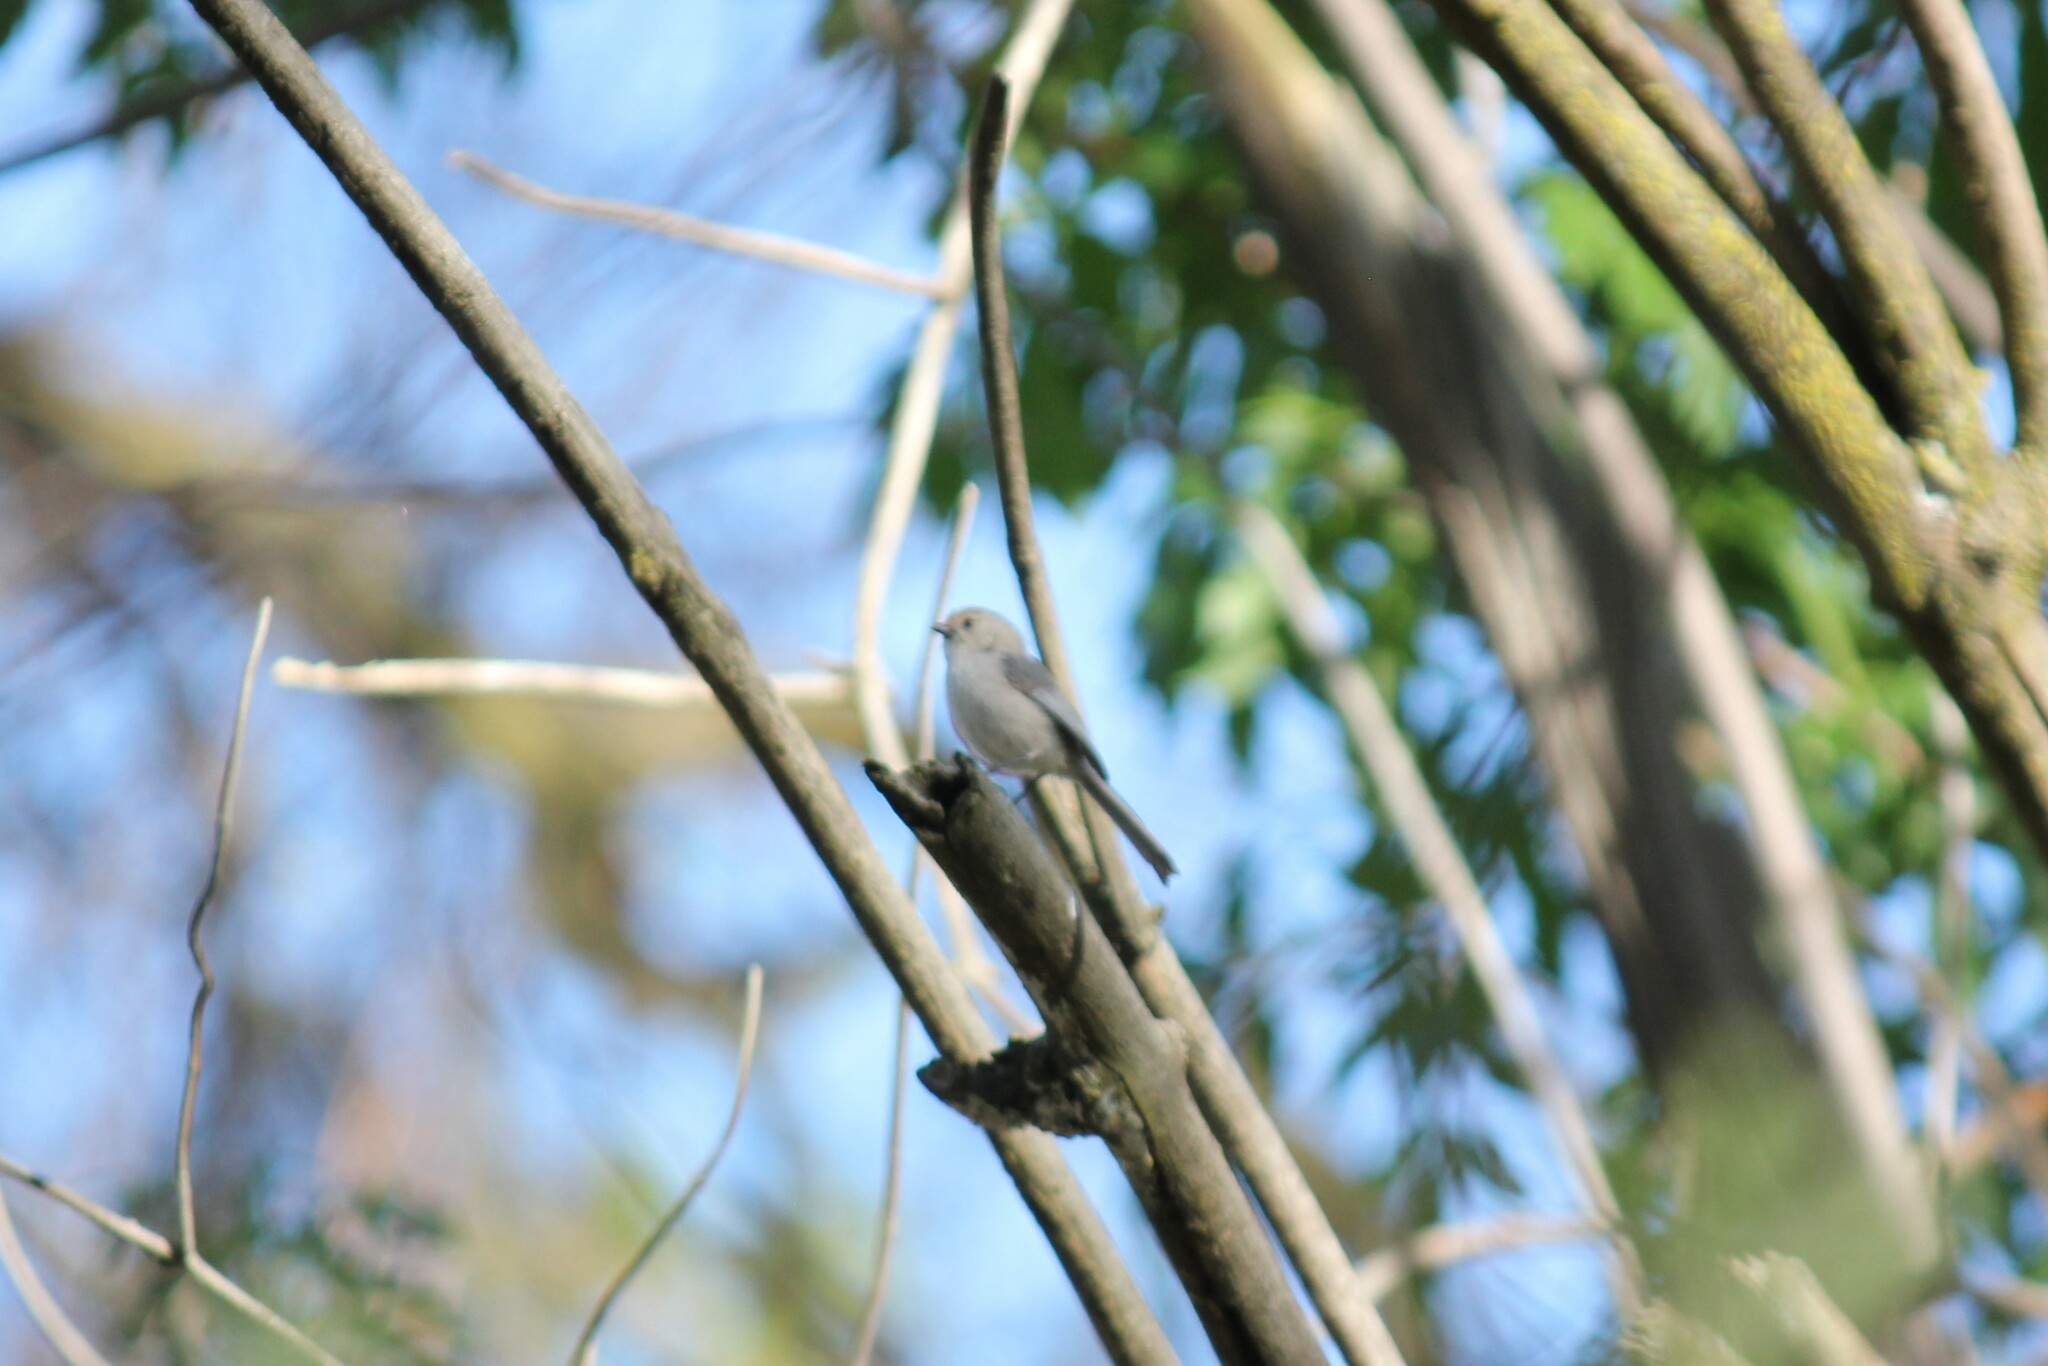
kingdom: Animalia
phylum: Chordata
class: Aves
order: Passeriformes
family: Aegithalidae
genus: Psaltriparus
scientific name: Psaltriparus minimus
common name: American bushtit
